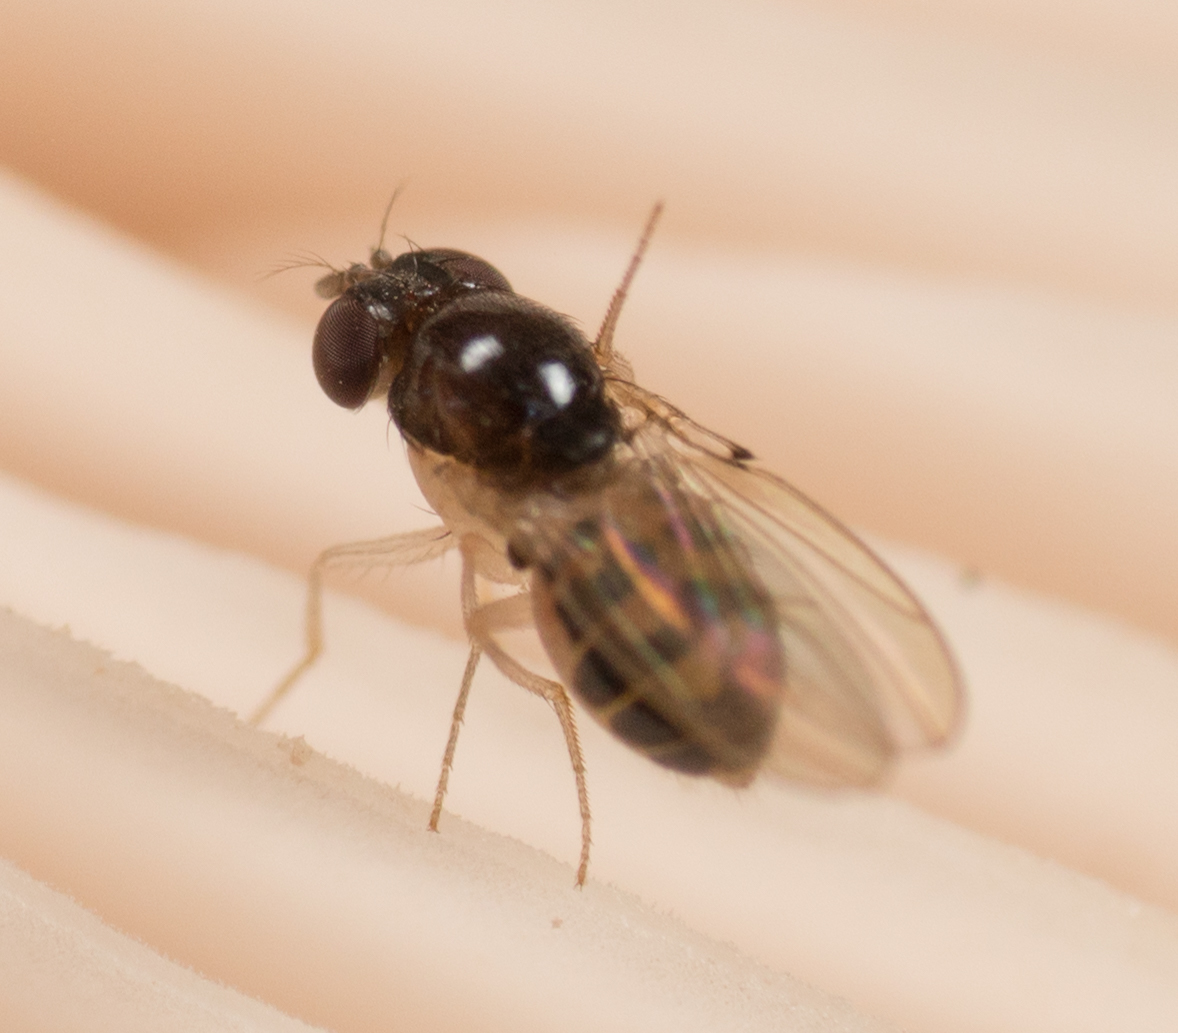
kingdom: Animalia
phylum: Arthropoda
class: Insecta
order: Diptera
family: Drosophilidae
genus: Mycodrosophila
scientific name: Mycodrosophila stalkeri
